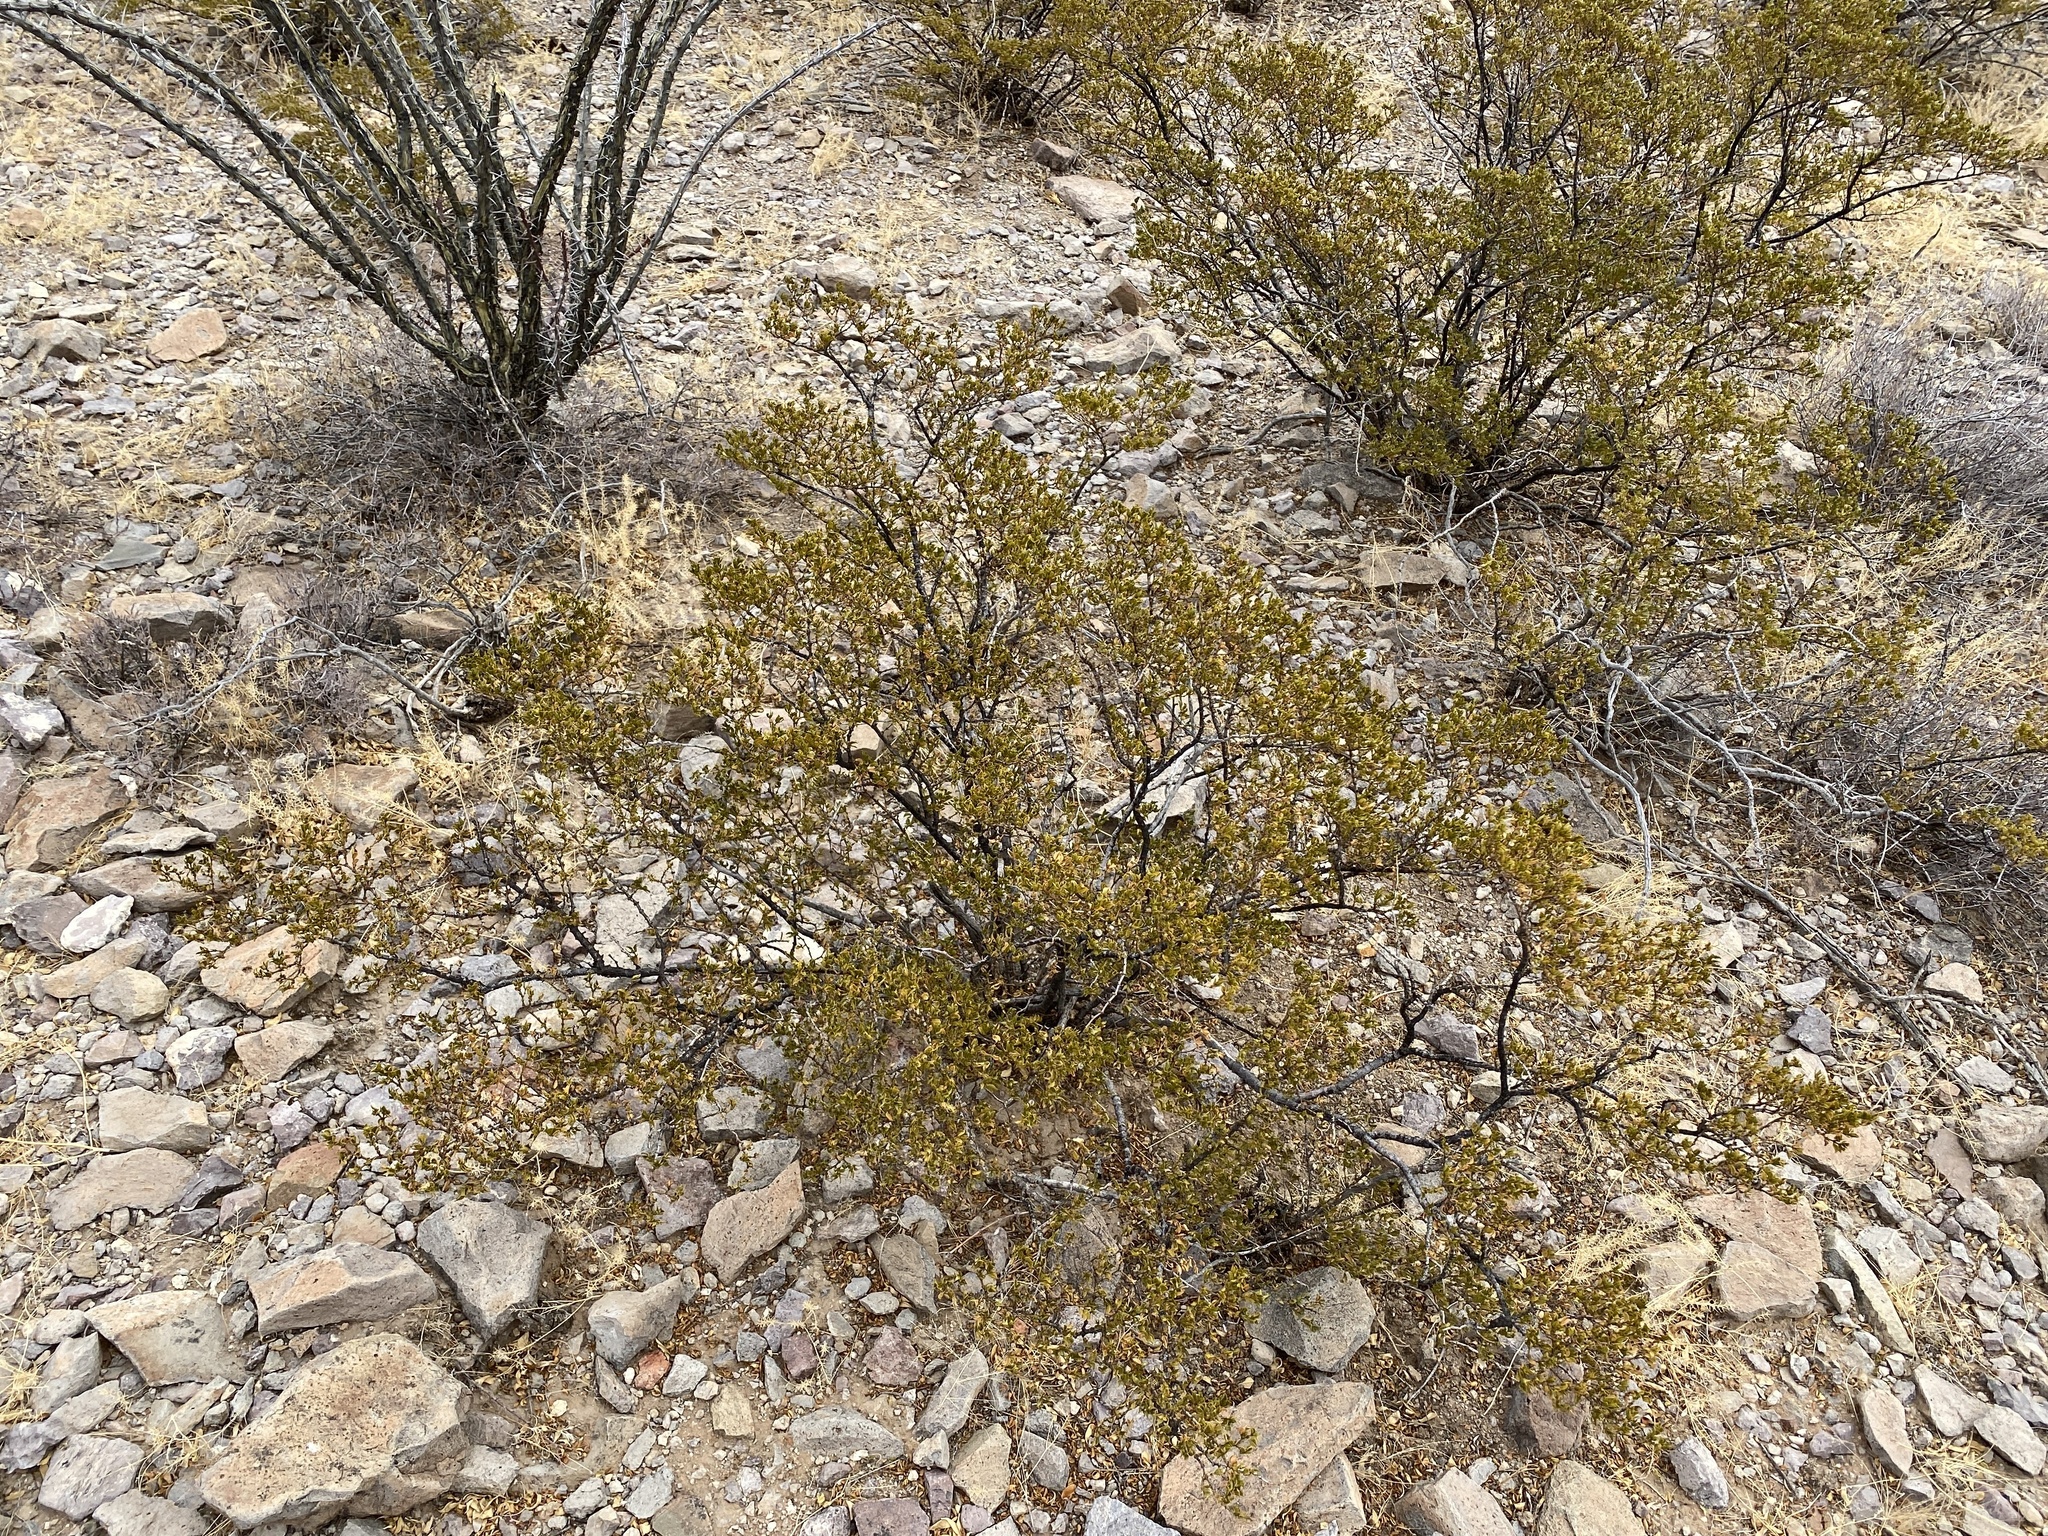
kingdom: Plantae
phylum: Tracheophyta
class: Magnoliopsida
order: Zygophyllales
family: Zygophyllaceae
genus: Larrea
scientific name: Larrea tridentata
